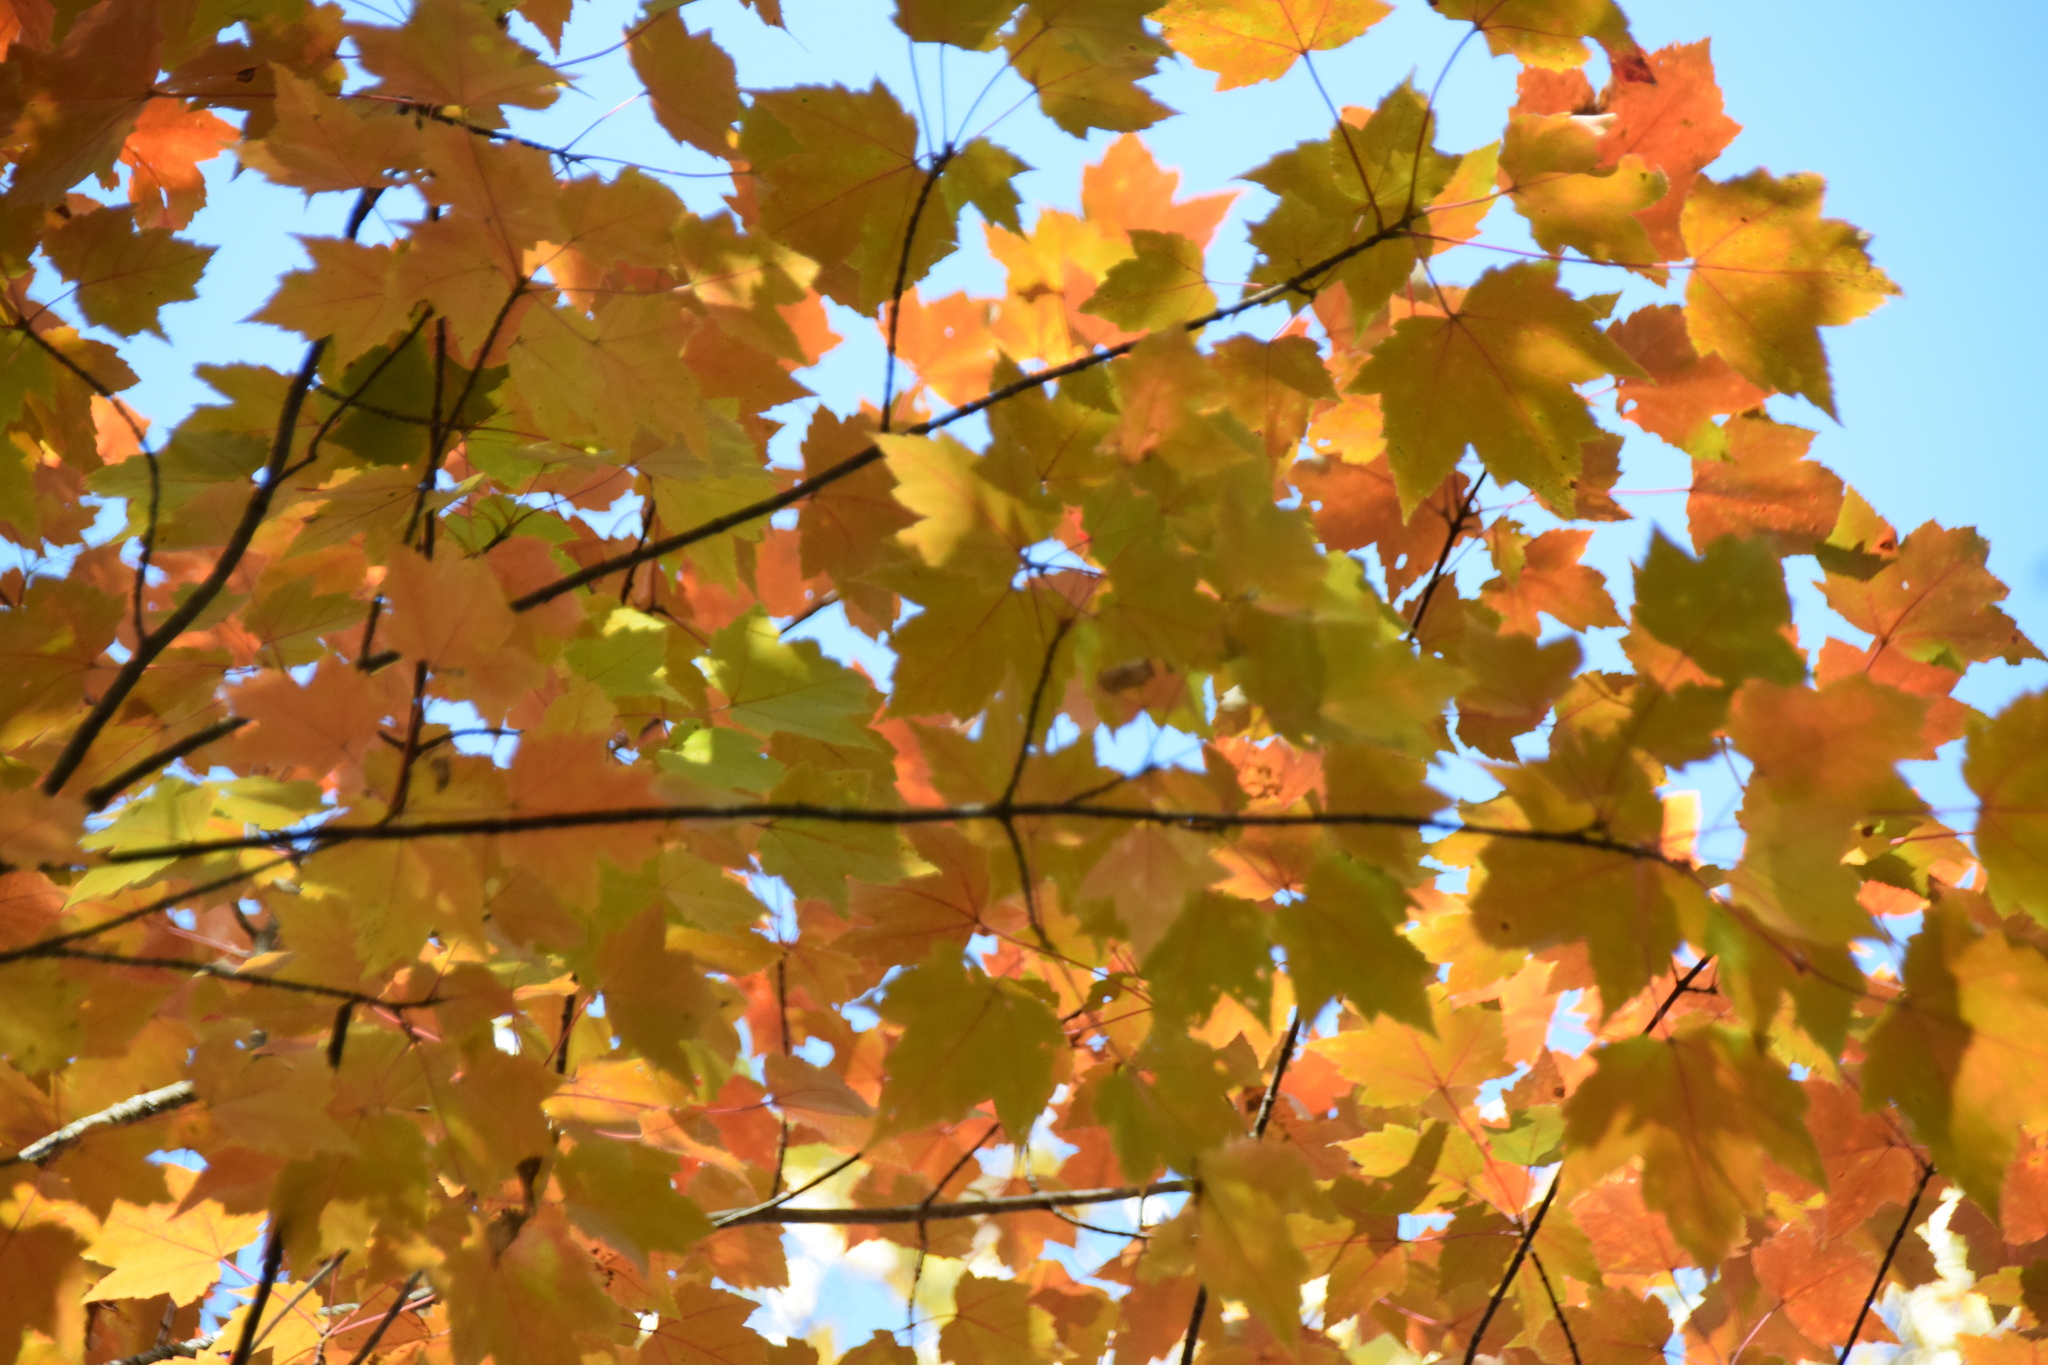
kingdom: Plantae
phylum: Tracheophyta
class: Magnoliopsida
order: Sapindales
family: Sapindaceae
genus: Acer
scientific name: Acer rubrum
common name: Red maple
